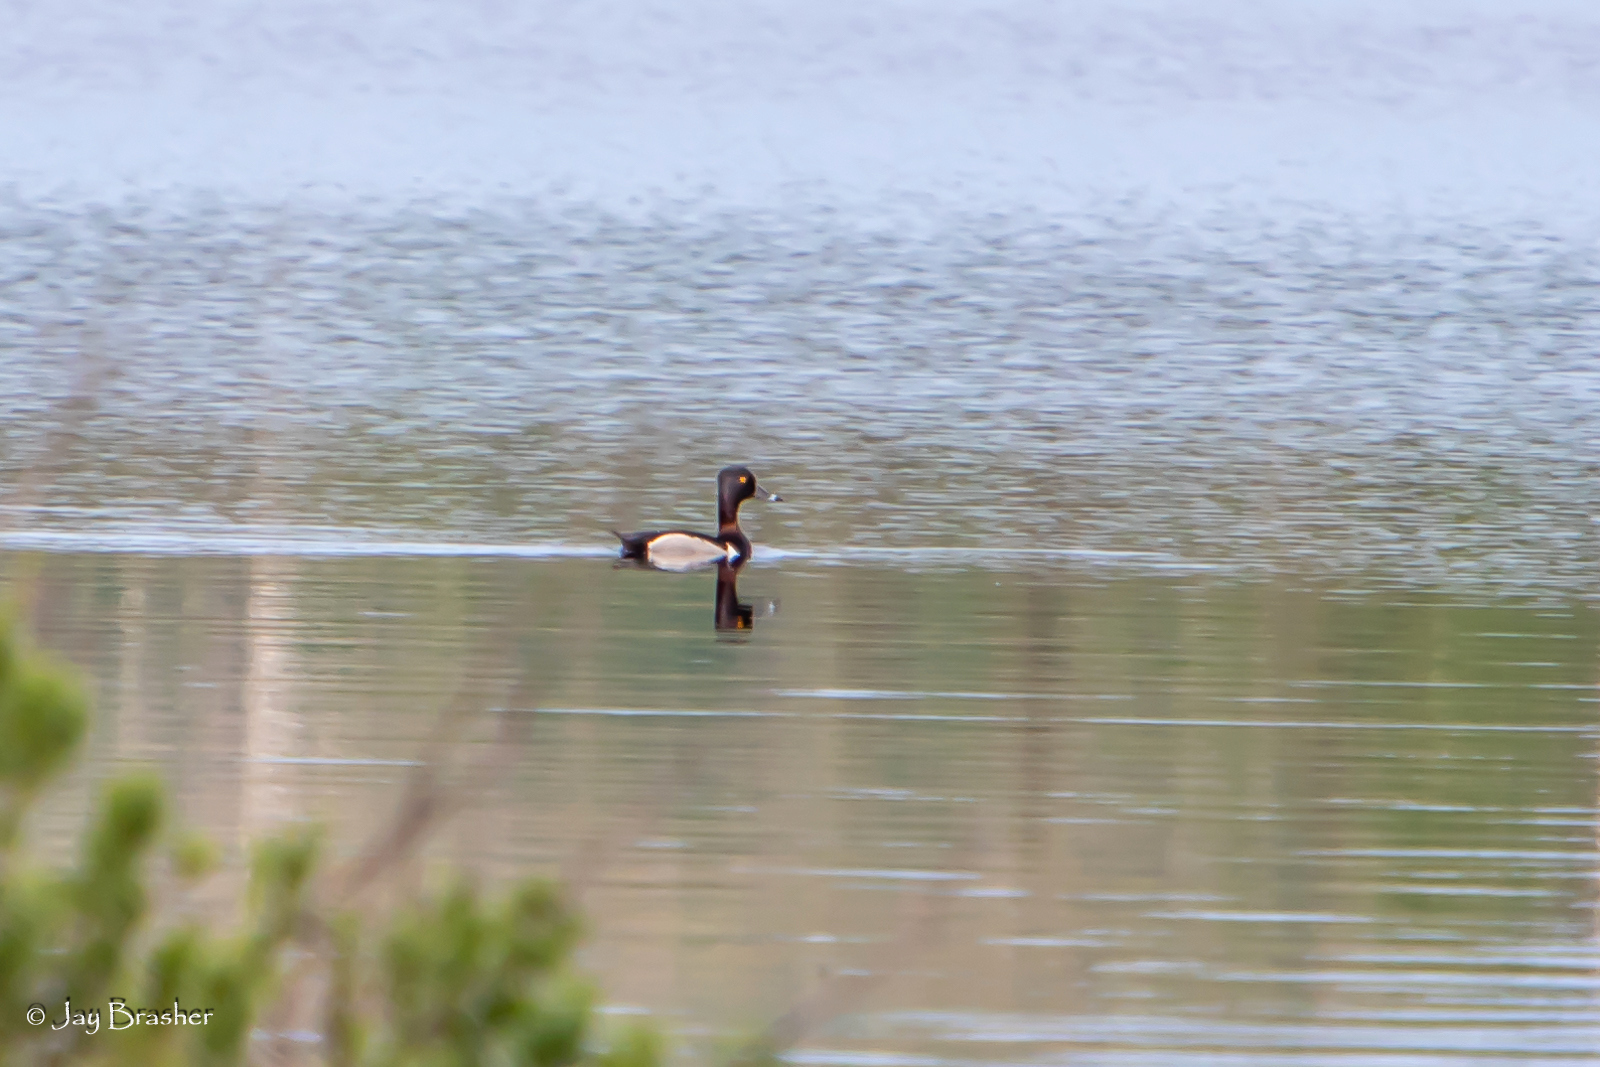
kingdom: Animalia
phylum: Chordata
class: Aves
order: Anseriformes
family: Anatidae
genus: Aythya
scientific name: Aythya collaris
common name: Ring-necked duck
